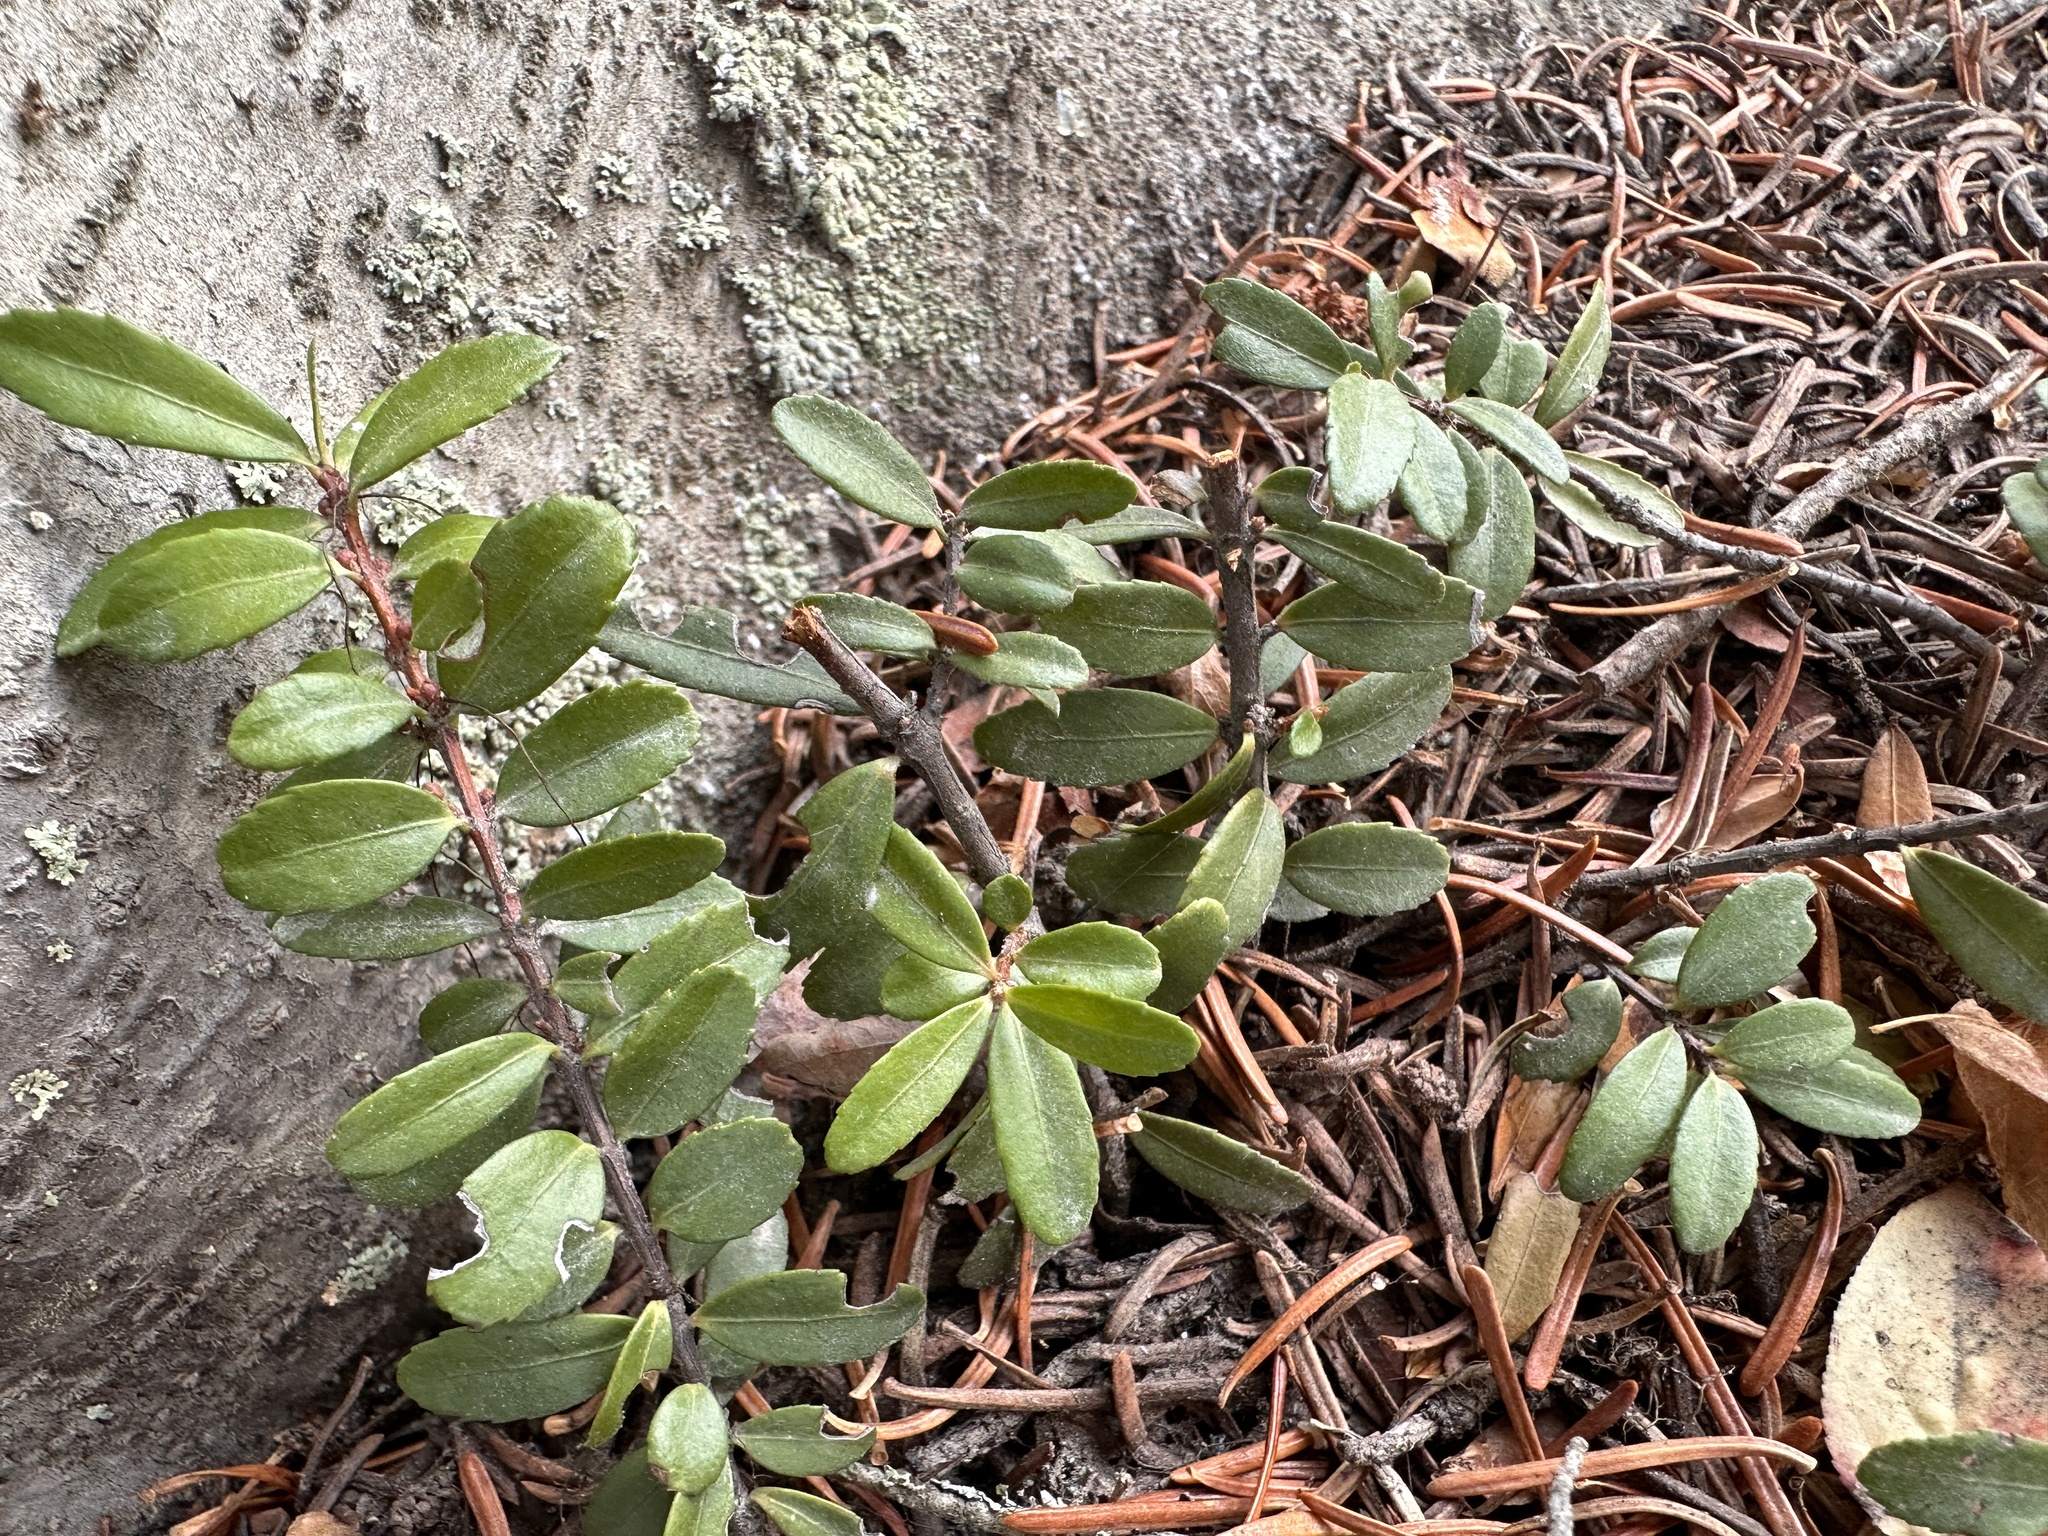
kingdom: Plantae
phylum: Tracheophyta
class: Magnoliopsida
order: Celastrales
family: Celastraceae
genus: Paxistima
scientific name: Paxistima myrsinites
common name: Mountain-lover
